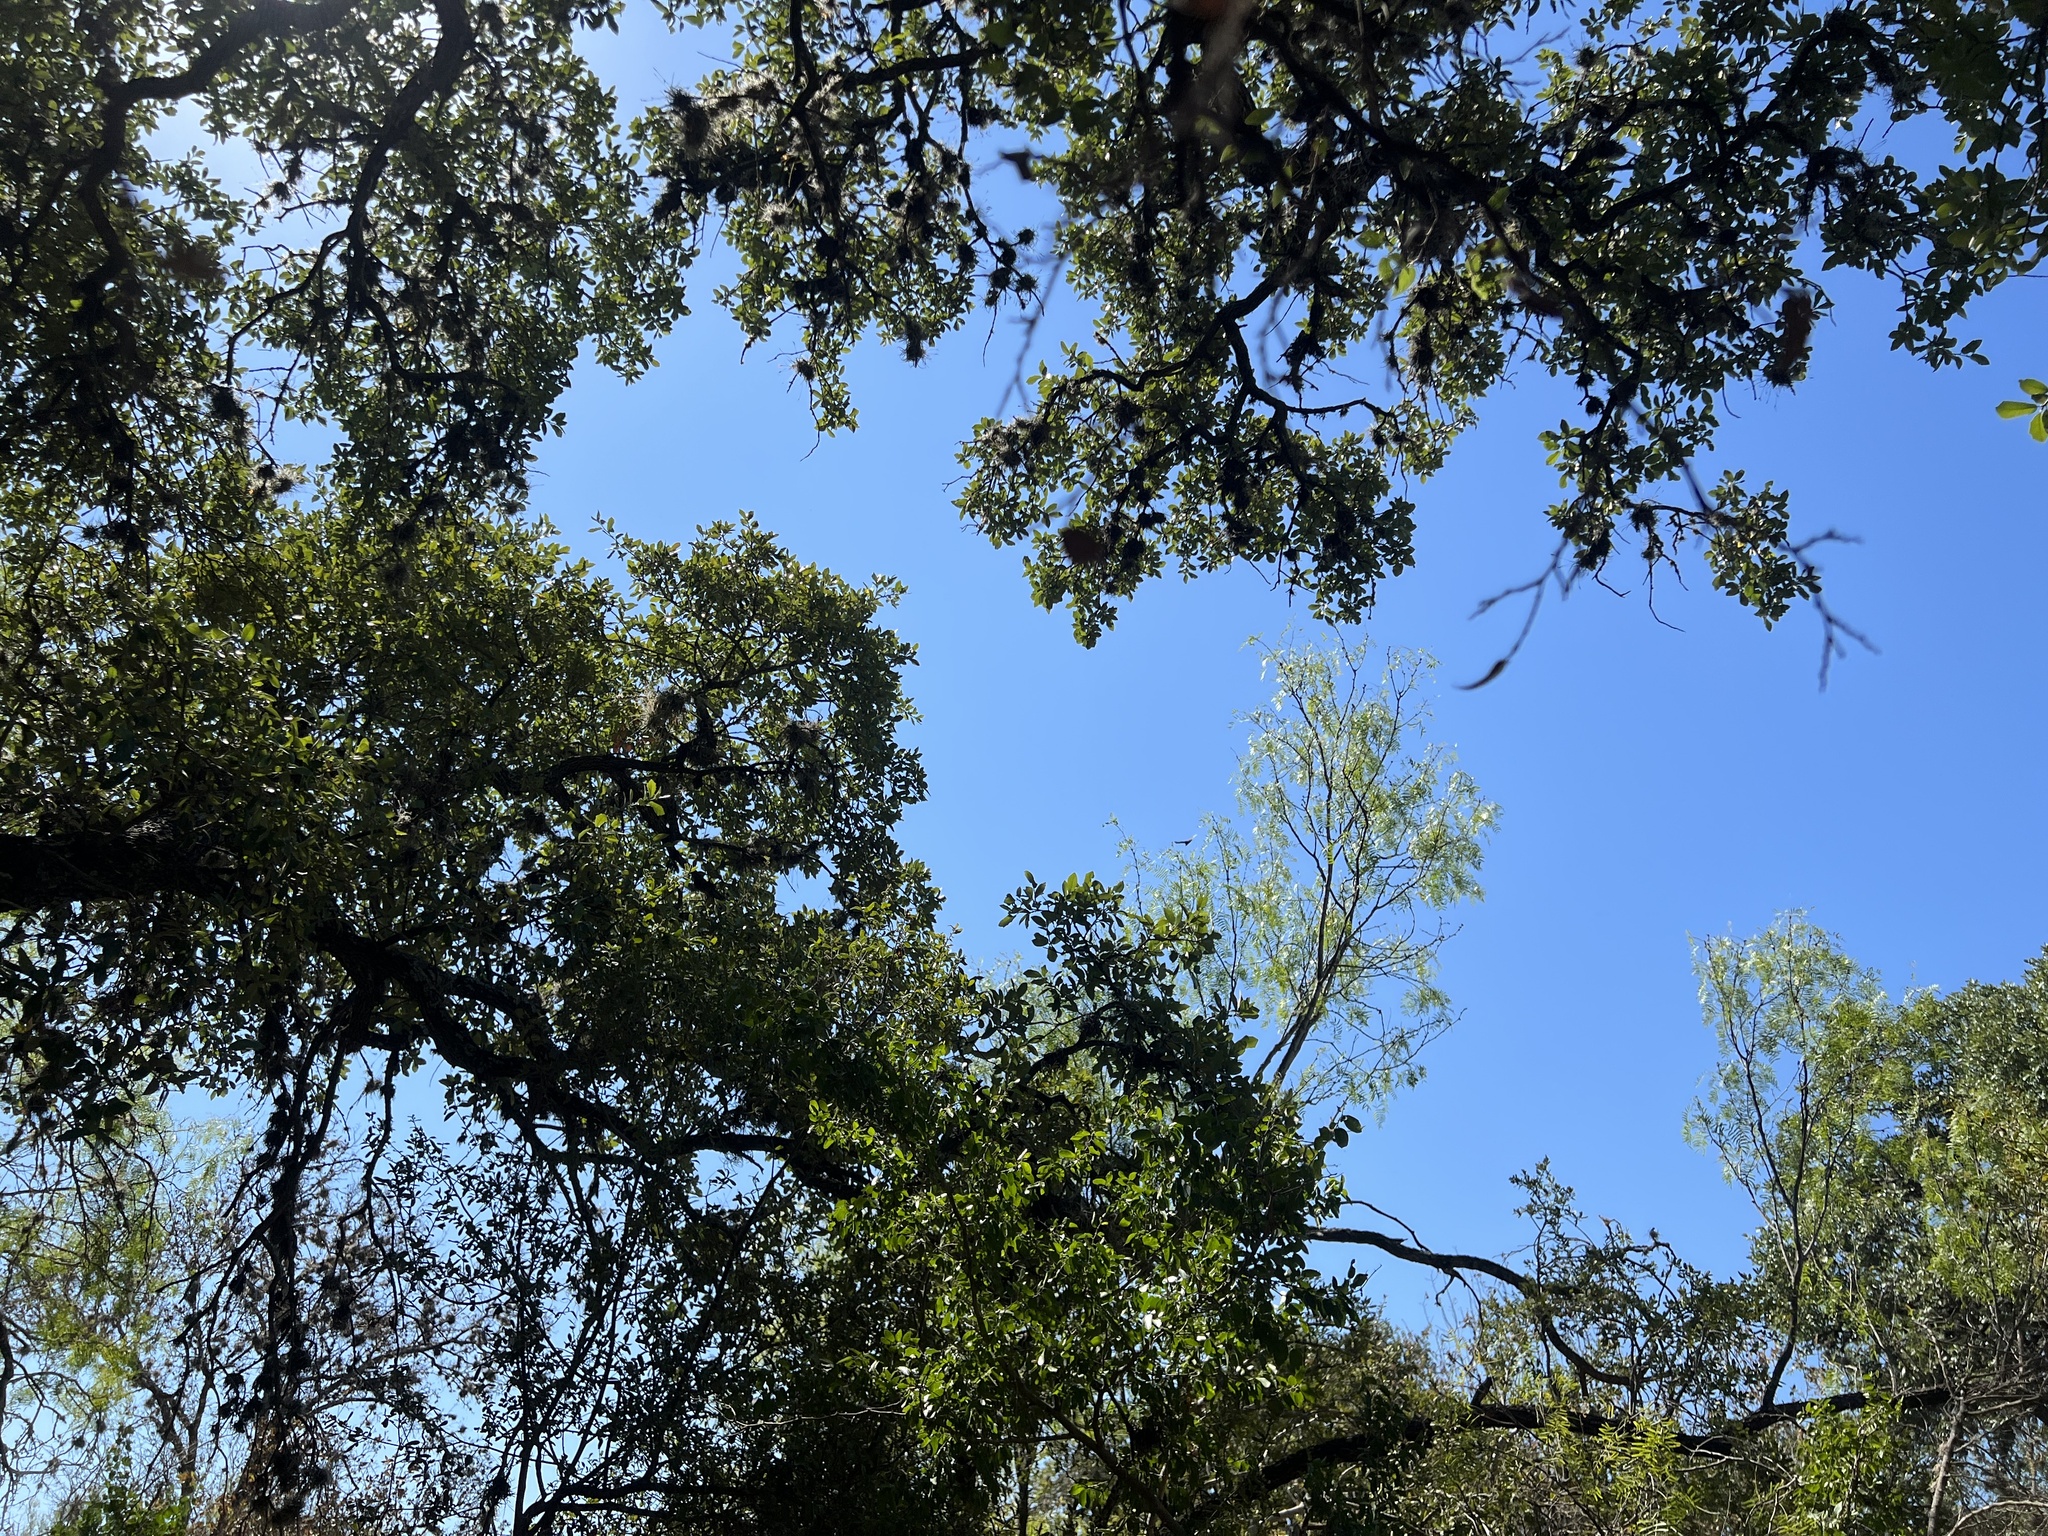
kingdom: Animalia
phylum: Chordata
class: Aves
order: Accipitriformes
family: Cathartidae
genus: Cathartes
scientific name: Cathartes aura
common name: Turkey vulture
